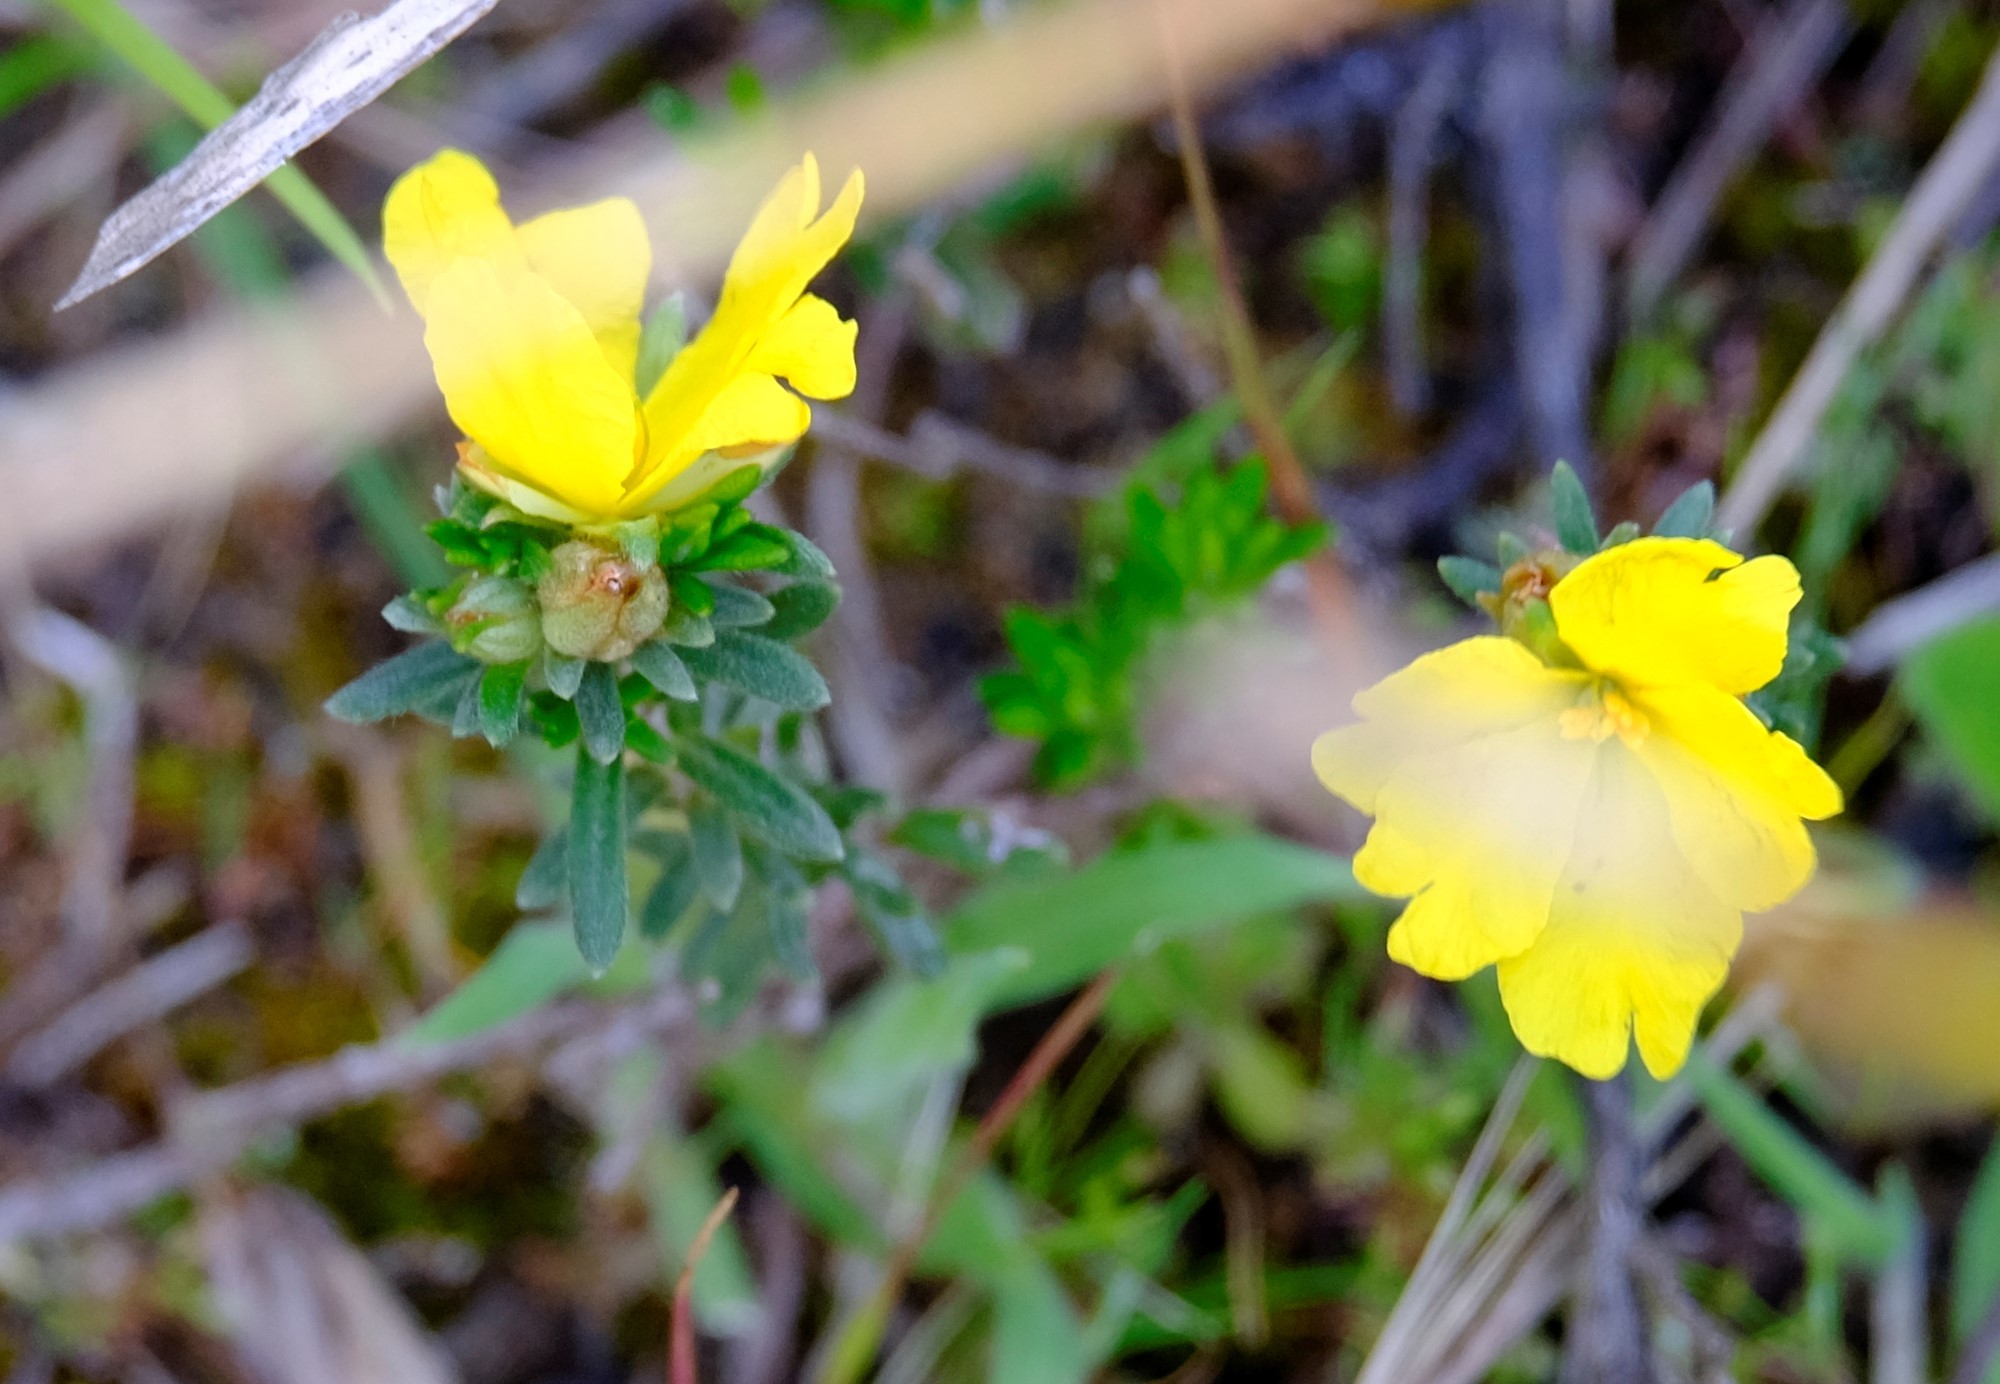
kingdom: Plantae
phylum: Tracheophyta
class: Magnoliopsida
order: Dilleniales
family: Dilleniaceae
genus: Hibbertia
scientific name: Hibbertia sericea
